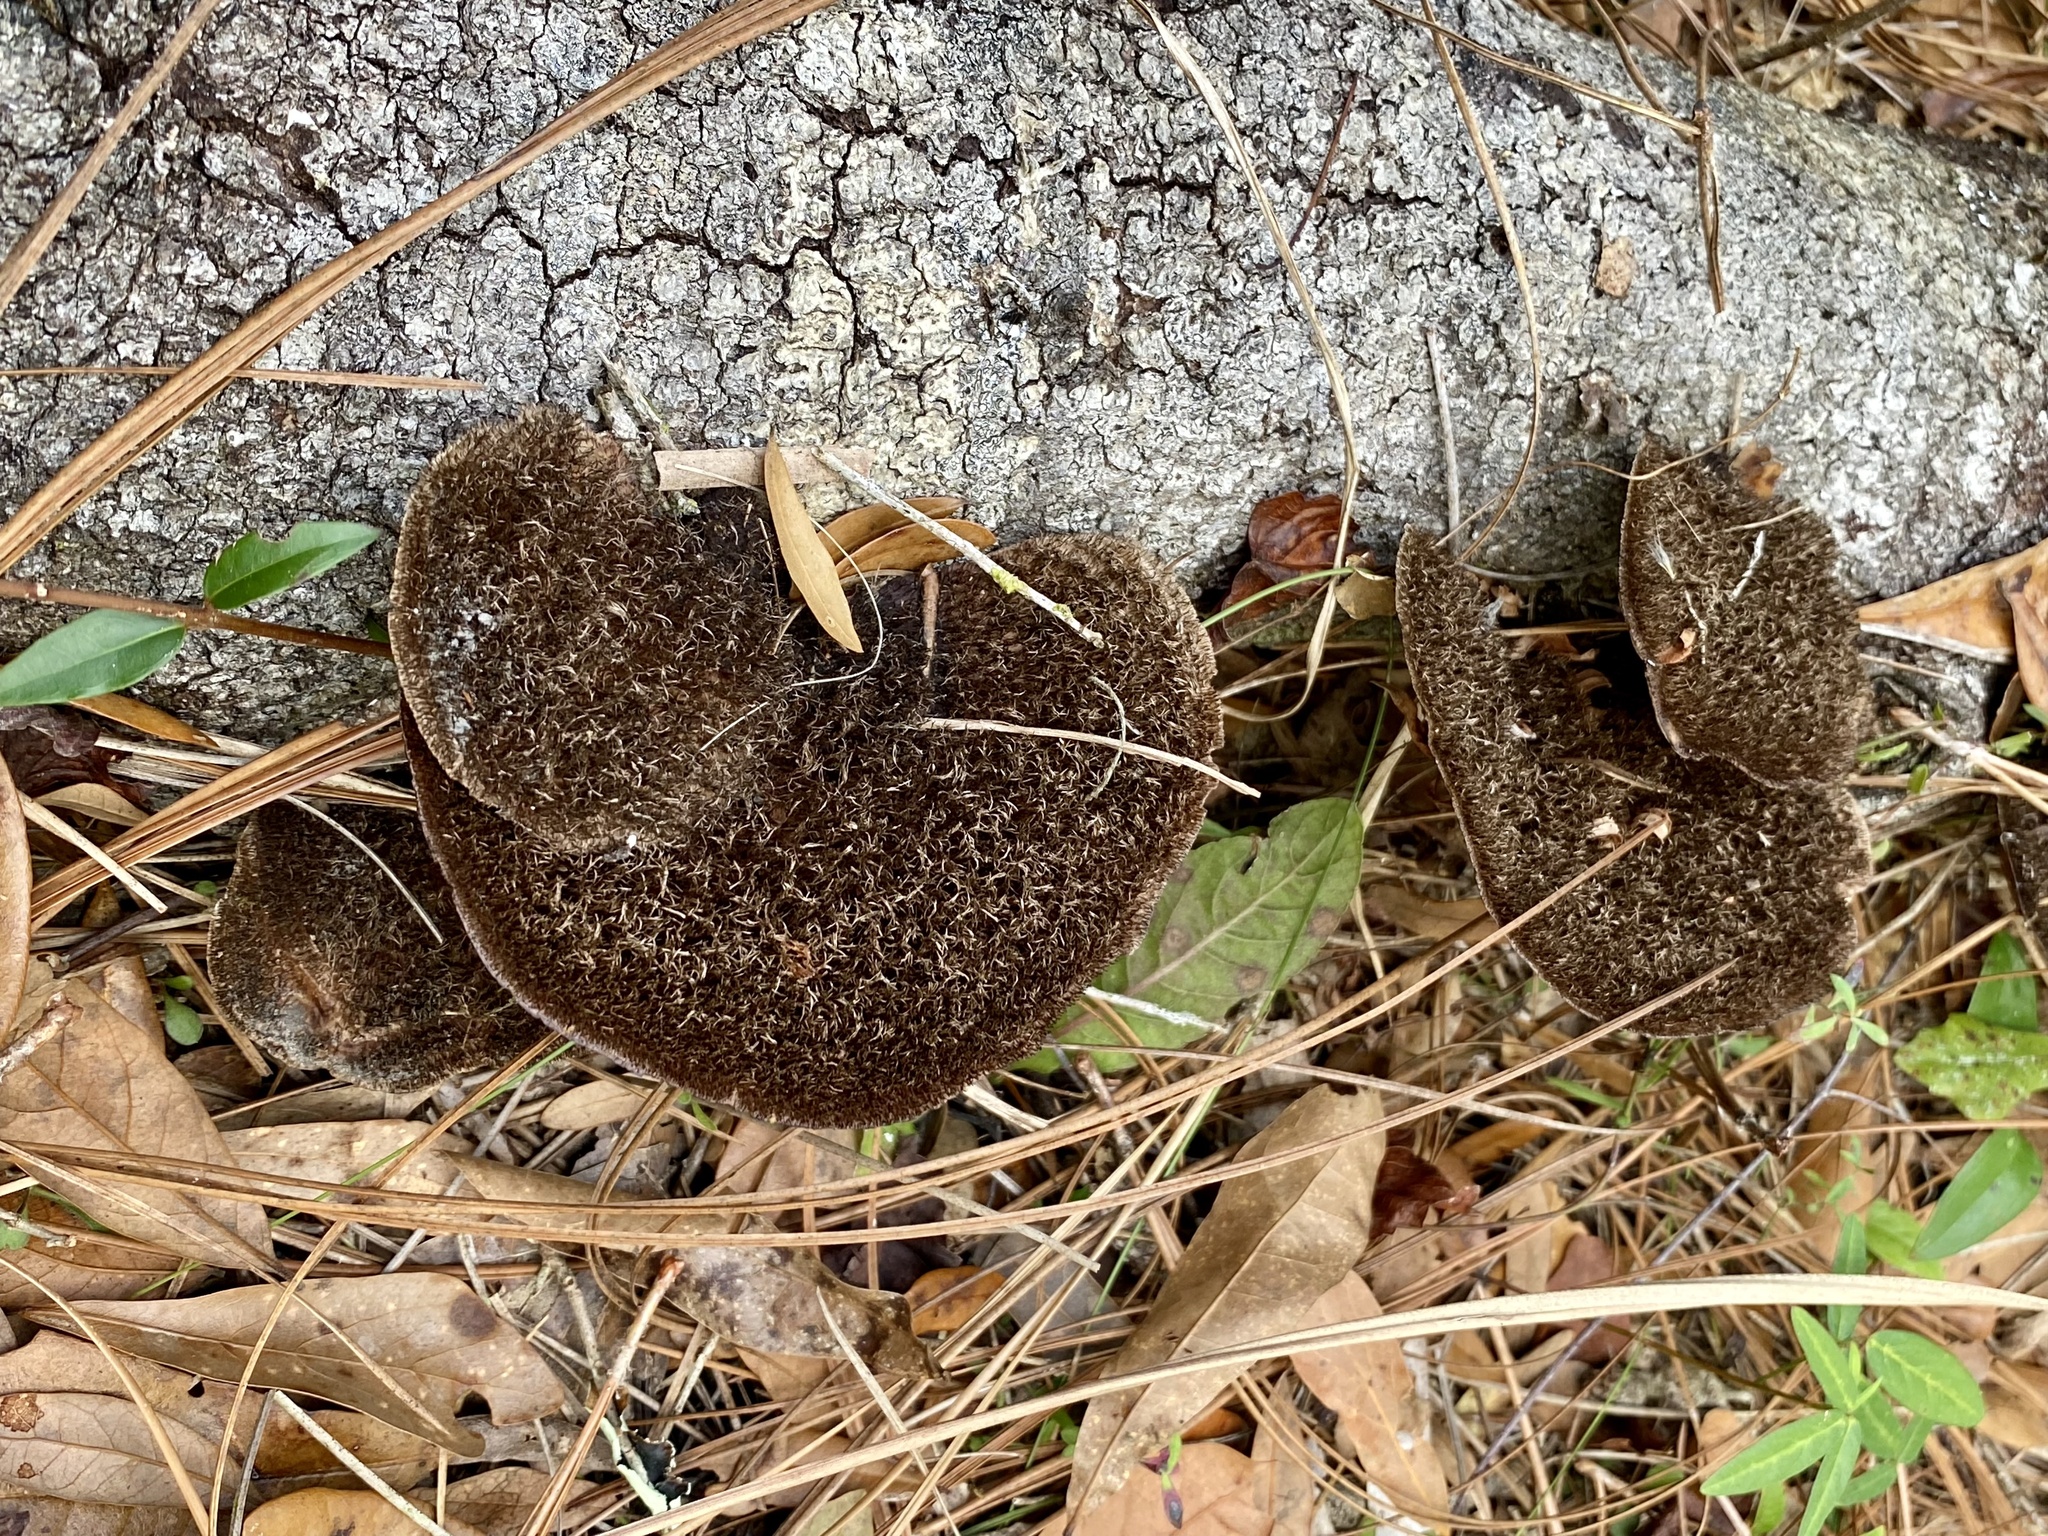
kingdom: Fungi
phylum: Basidiomycota
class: Agaricomycetes
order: Polyporales
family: Cerrenaceae
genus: Cerrena
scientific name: Cerrena hydnoides
